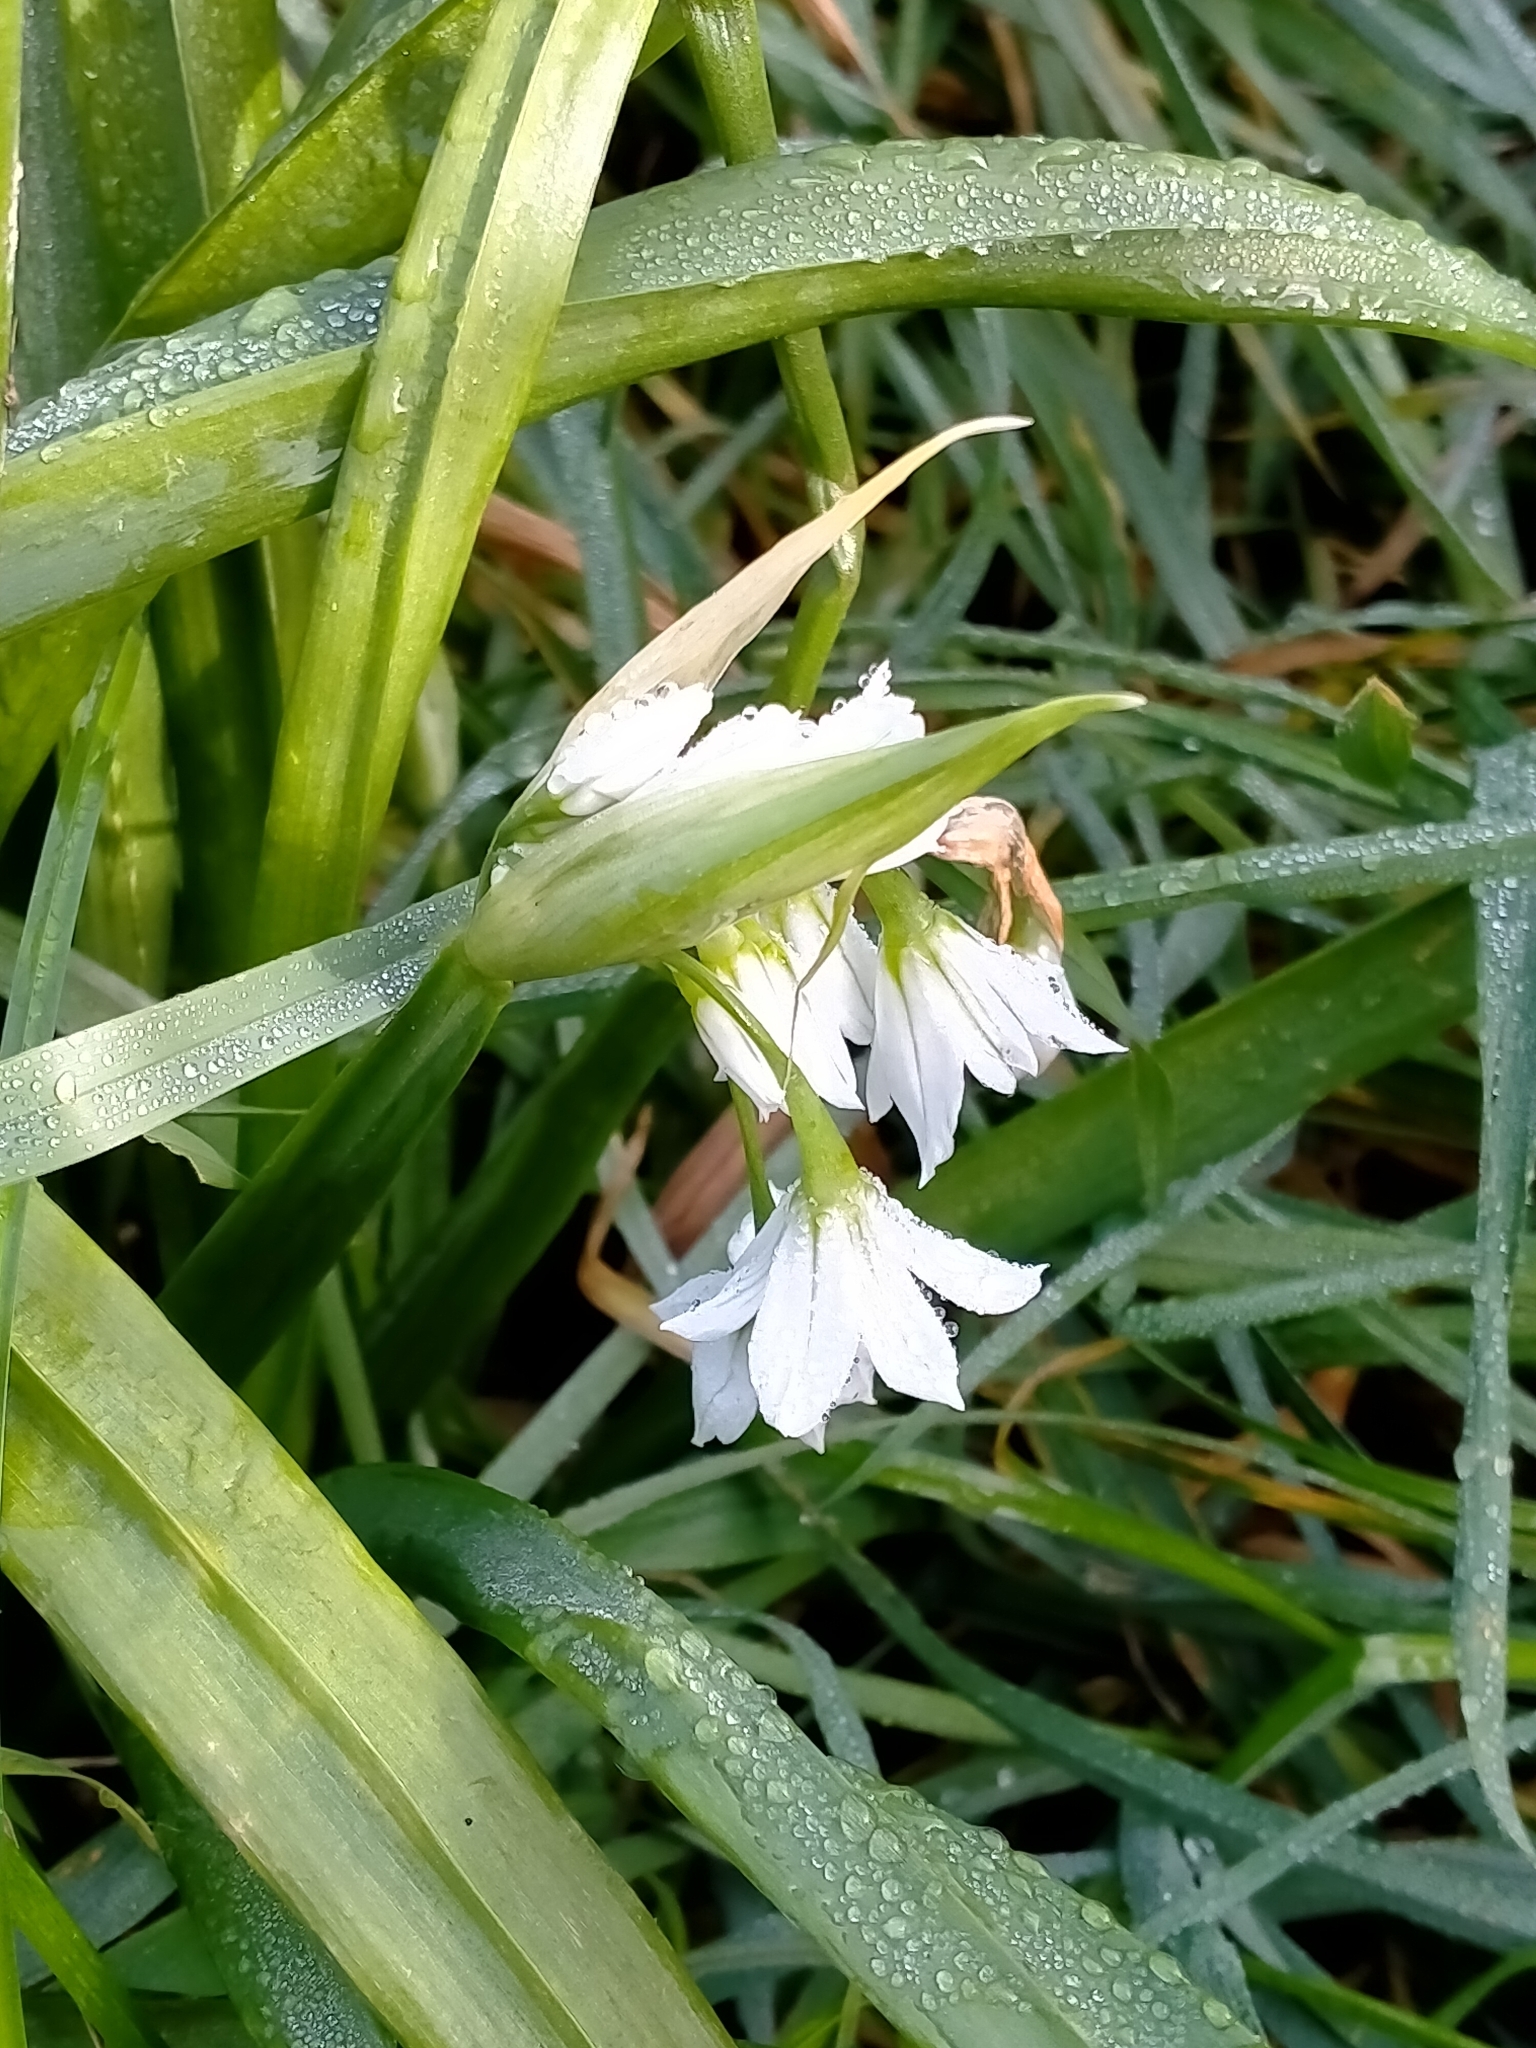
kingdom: Plantae
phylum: Tracheophyta
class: Liliopsida
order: Asparagales
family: Amaryllidaceae
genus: Allium
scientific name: Allium triquetrum
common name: Three-cornered garlic
